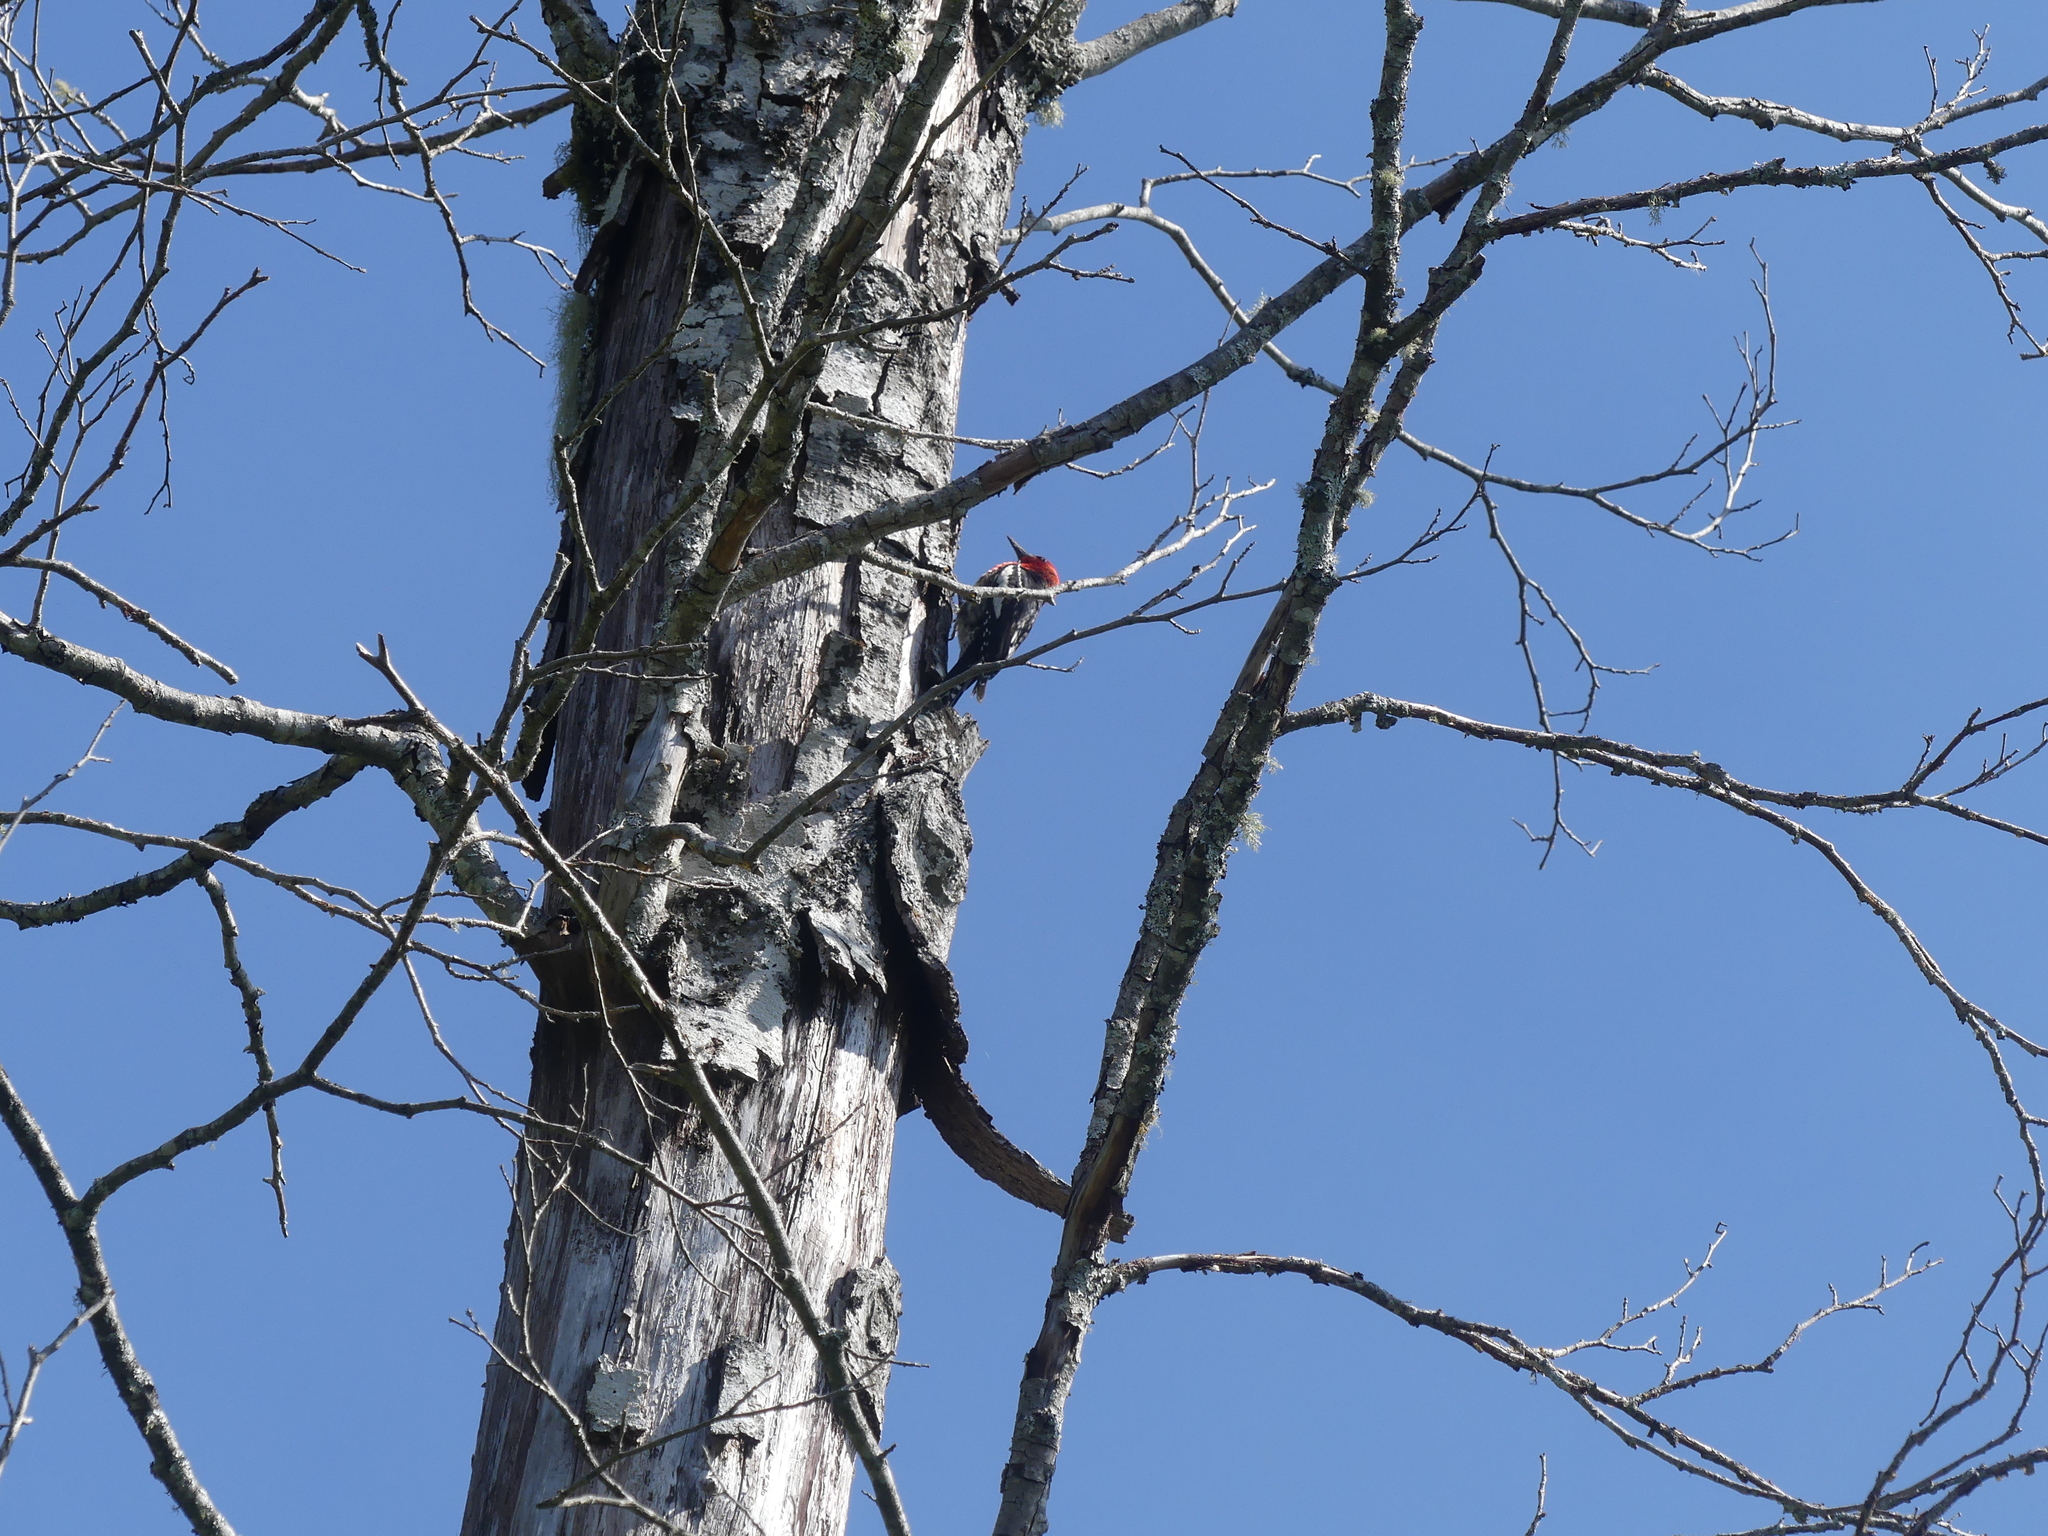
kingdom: Animalia
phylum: Chordata
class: Aves
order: Piciformes
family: Picidae
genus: Sphyrapicus
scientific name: Sphyrapicus ruber
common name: Red-breasted sapsucker
